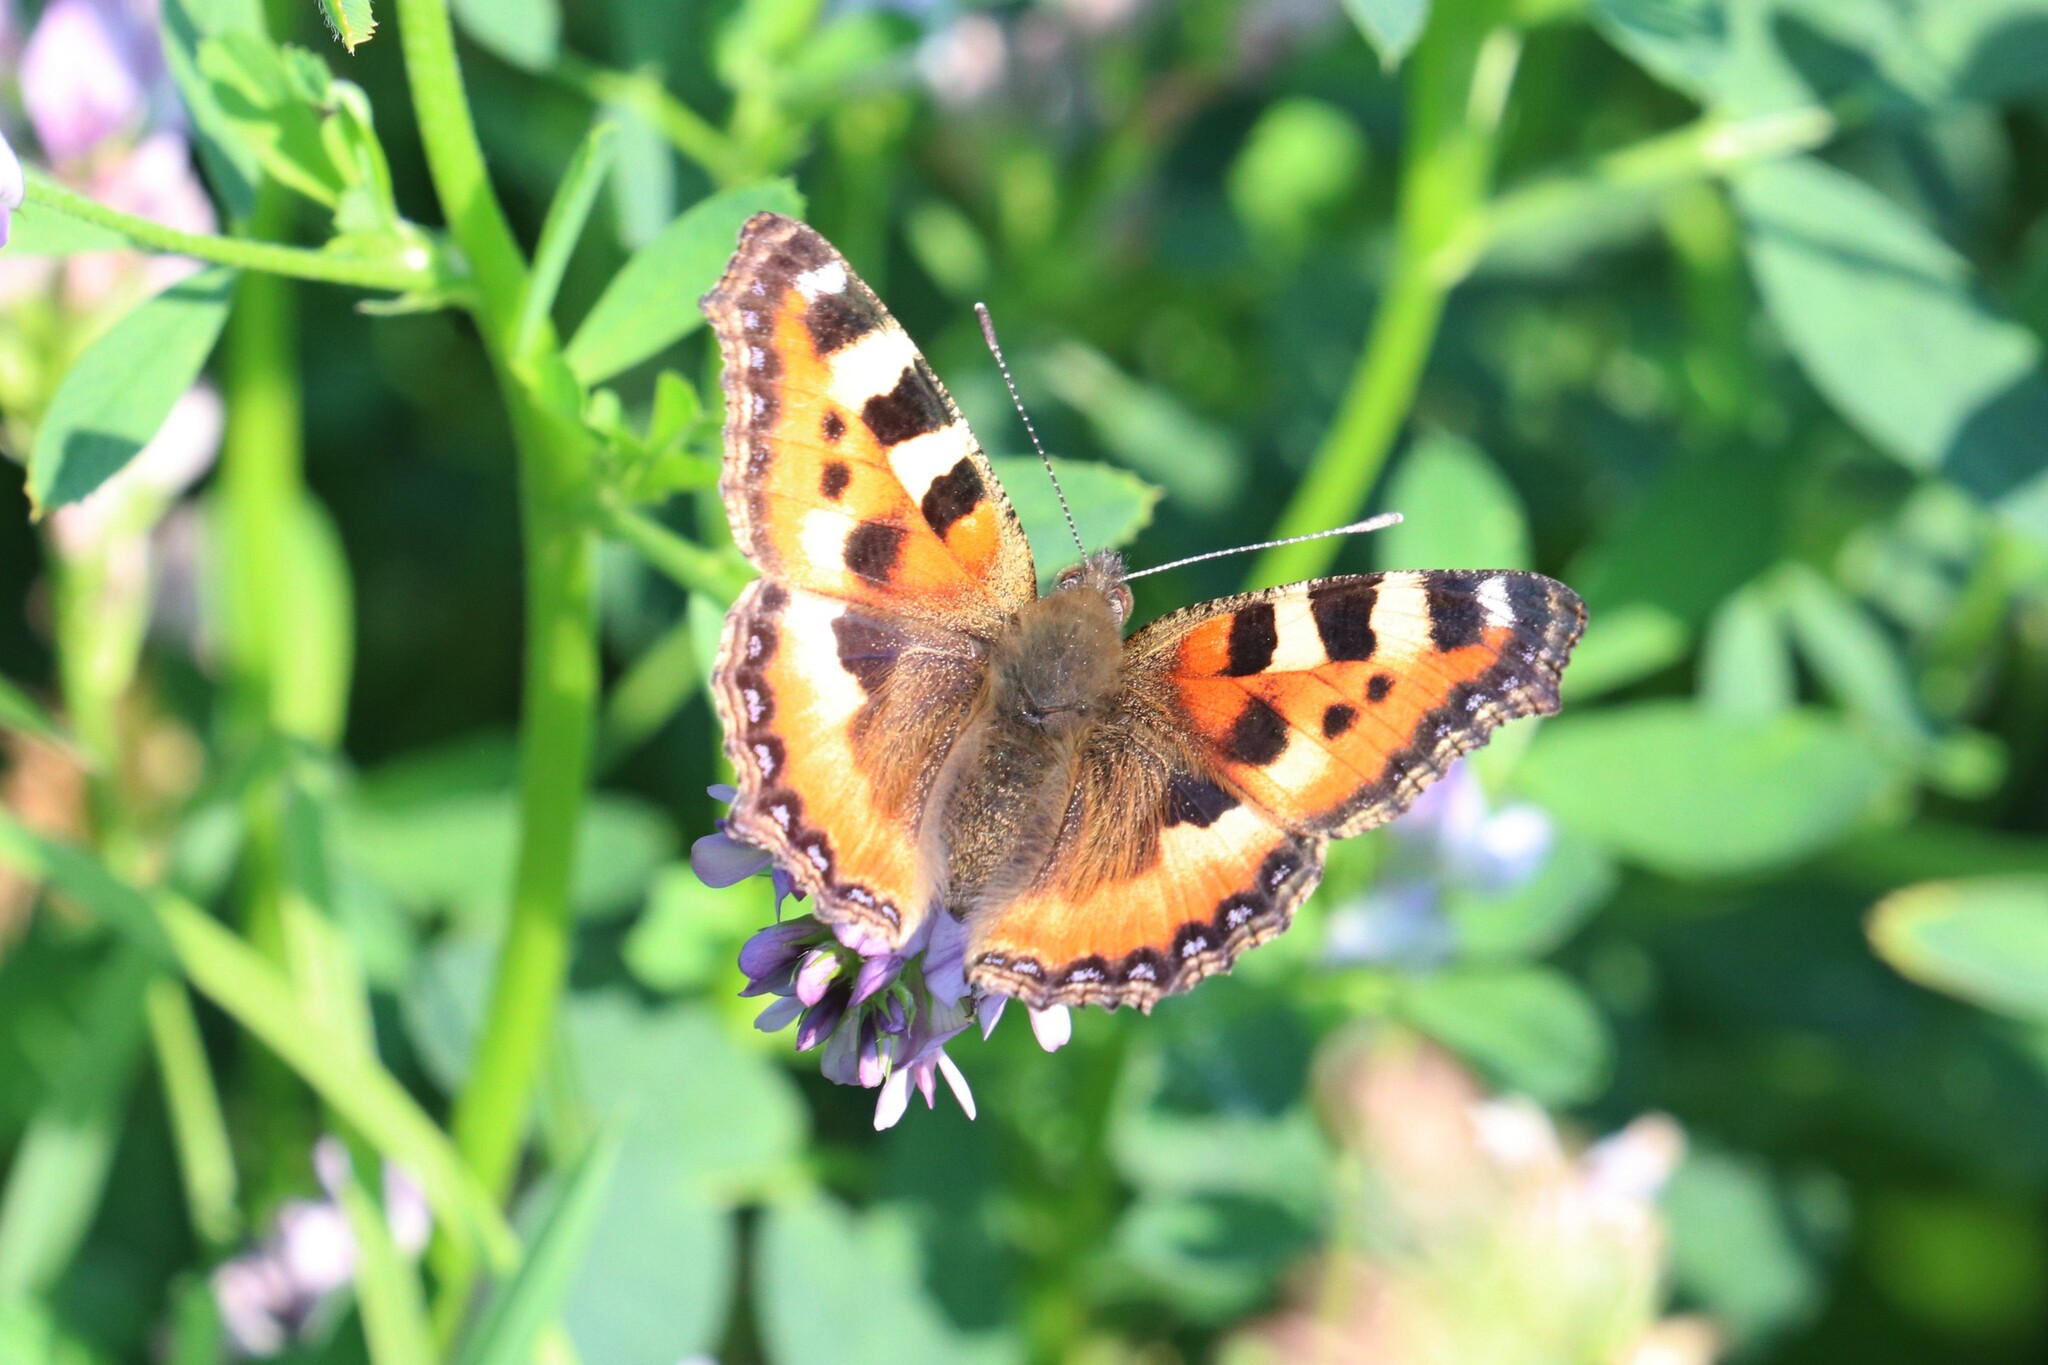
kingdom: Animalia
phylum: Arthropoda
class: Insecta
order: Lepidoptera
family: Nymphalidae
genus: Aglais
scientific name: Aglais urticae
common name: Small tortoiseshell
